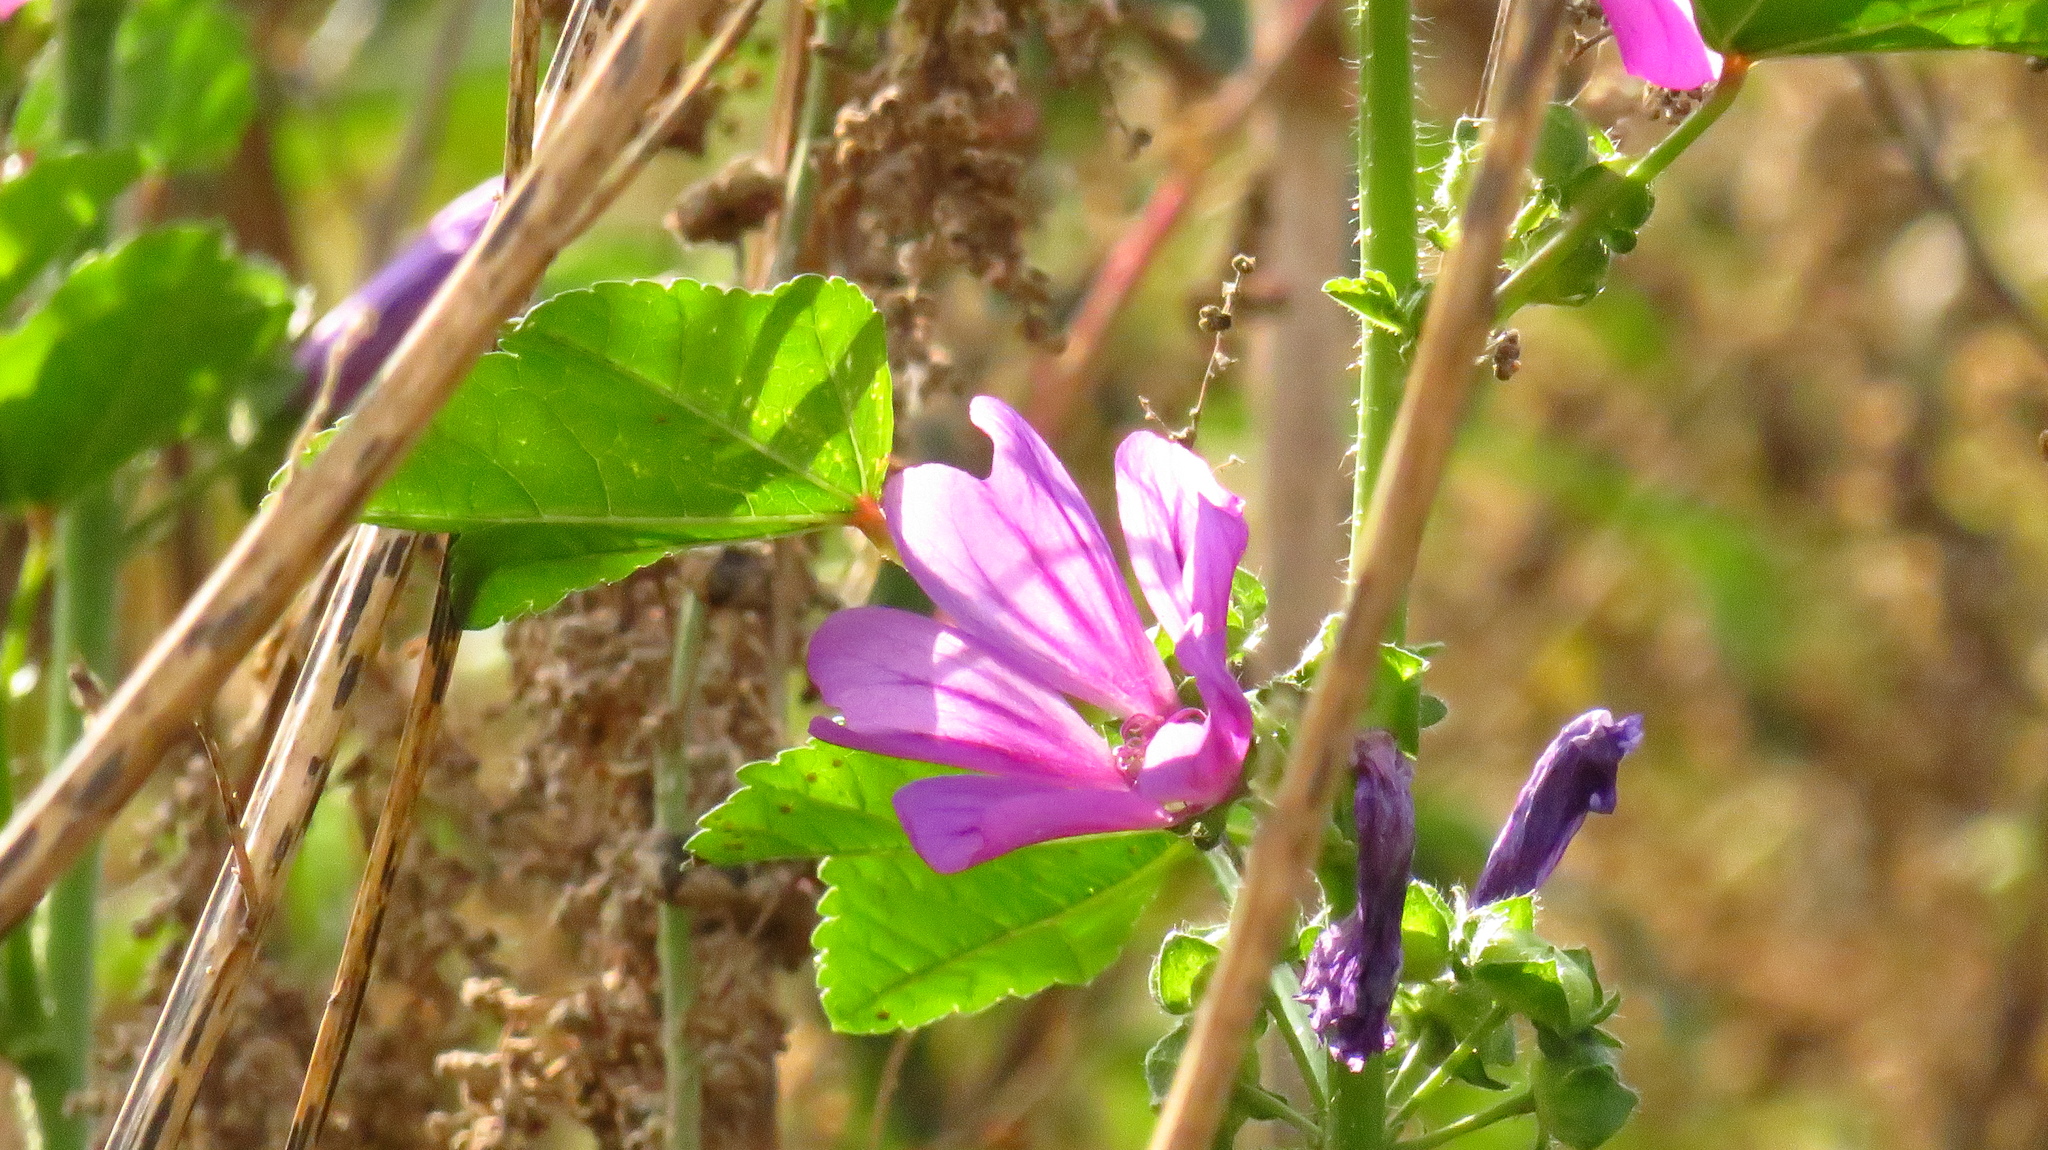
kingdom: Plantae
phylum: Tracheophyta
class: Magnoliopsida
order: Malvales
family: Malvaceae
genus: Malva
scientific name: Malva sylvestris
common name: Common mallow
